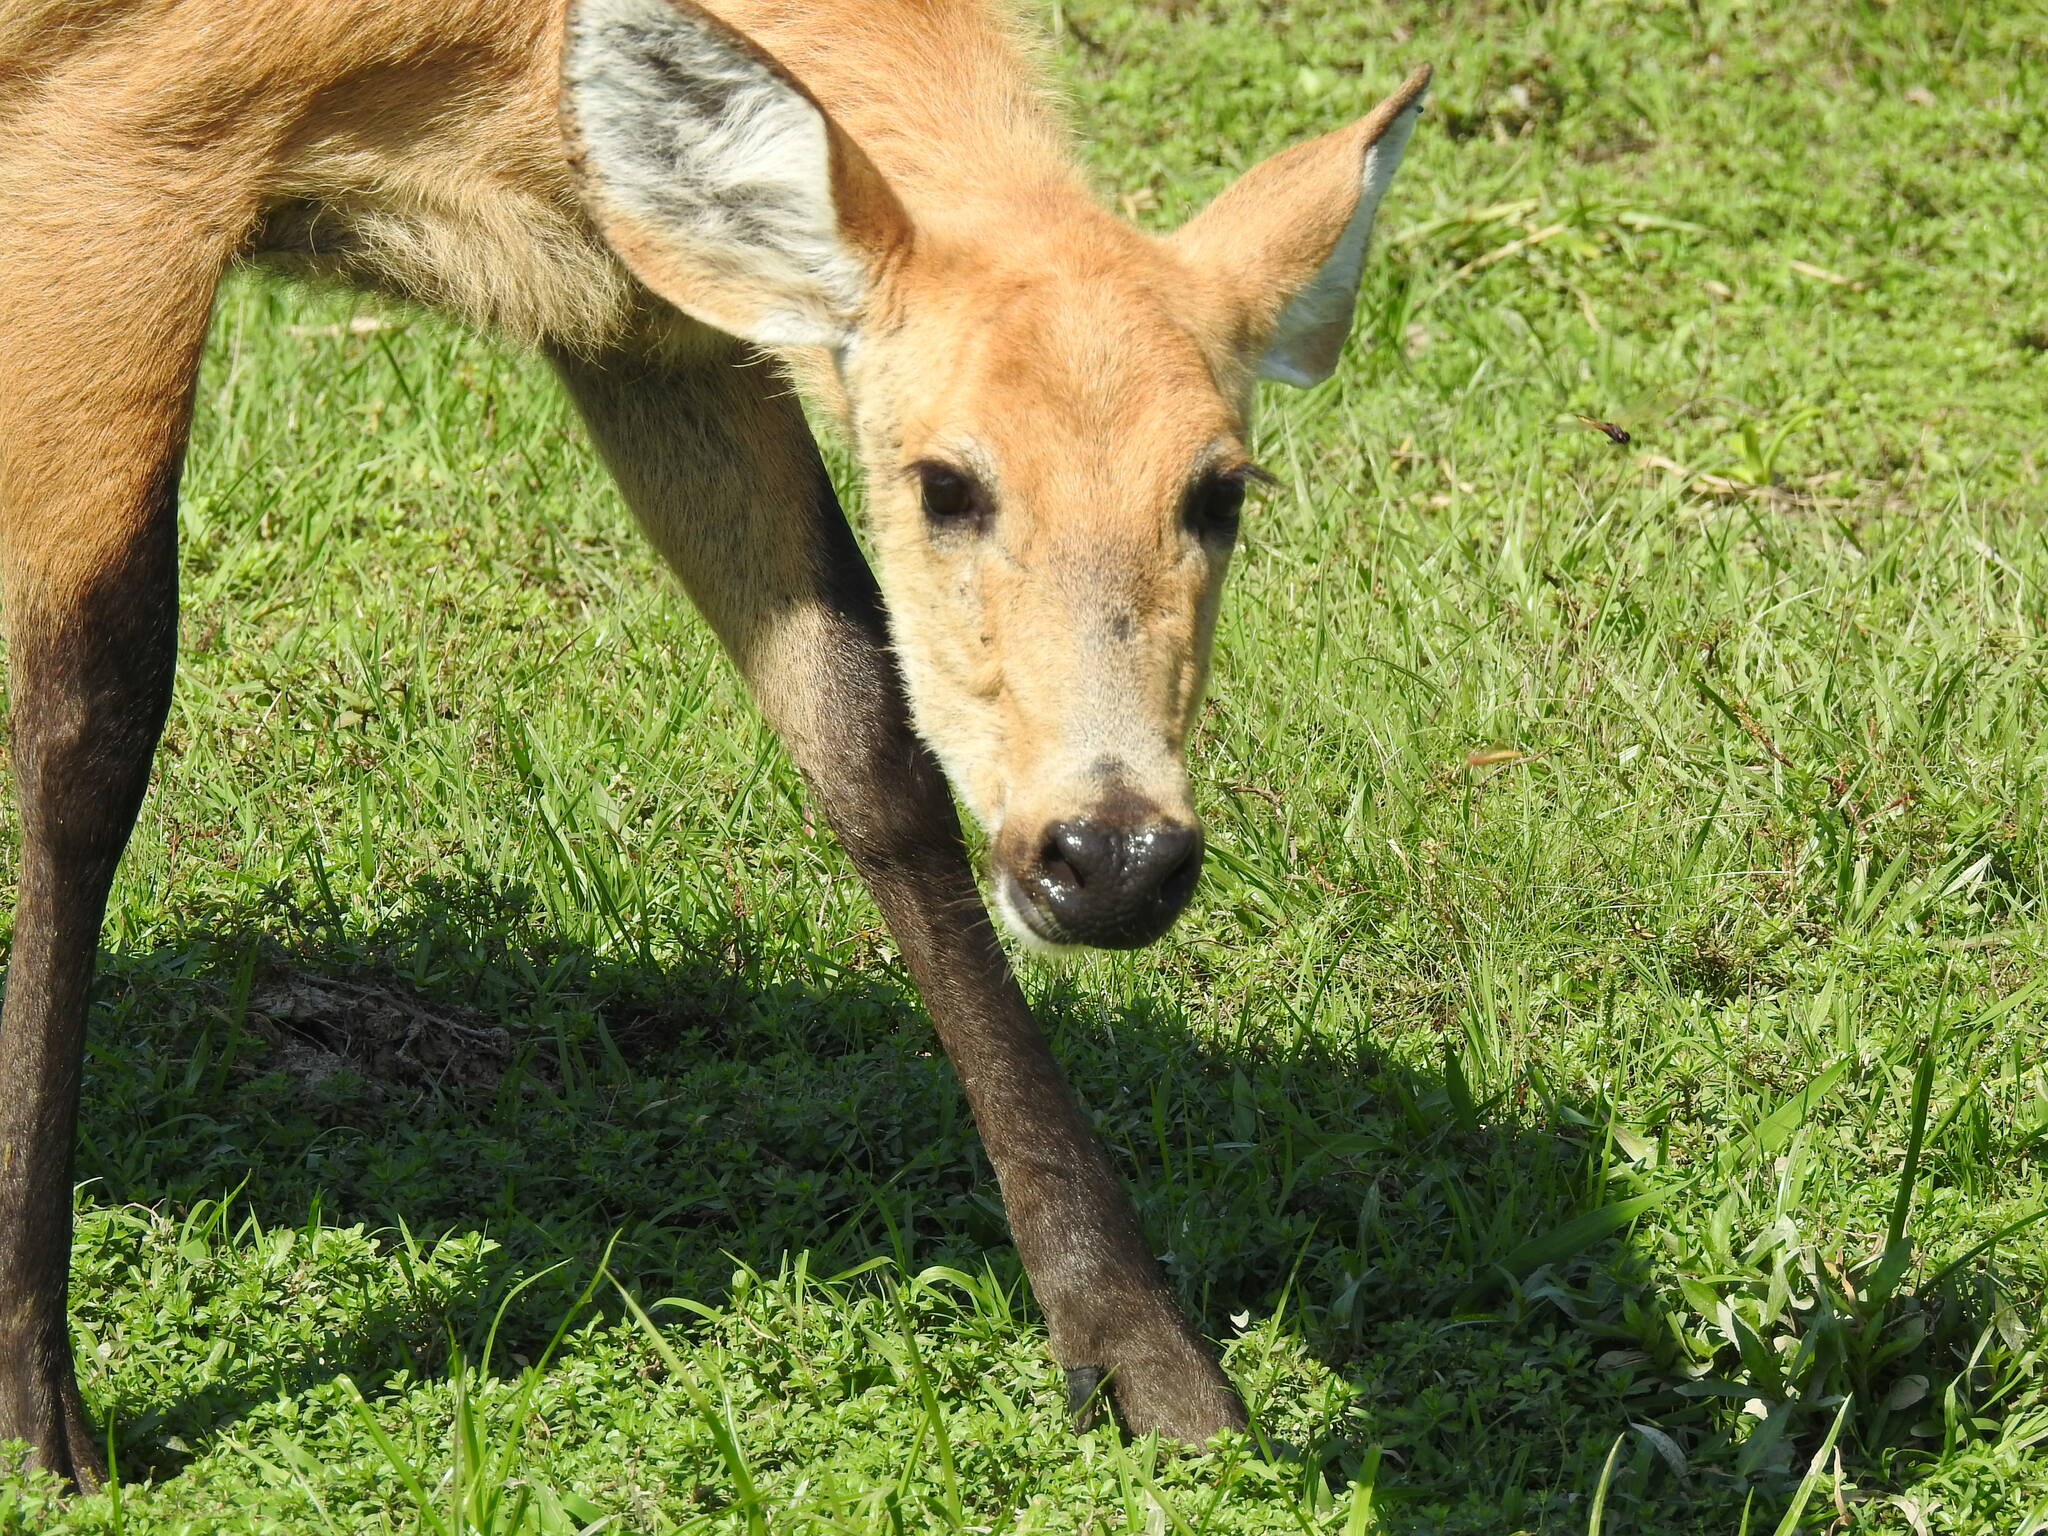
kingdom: Animalia
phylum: Chordata
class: Mammalia
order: Artiodactyla
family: Cervidae
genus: Blastocerus
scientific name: Blastocerus dichotomus
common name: Marsh deer
